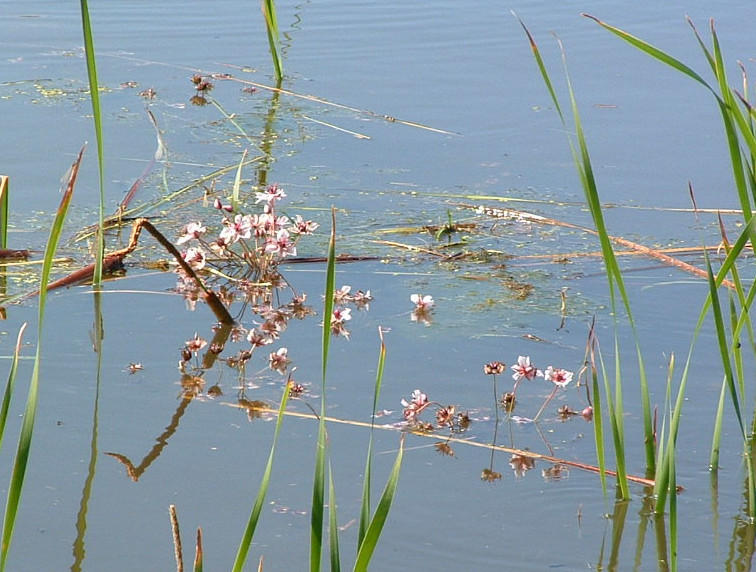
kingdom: Plantae
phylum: Tracheophyta
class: Liliopsida
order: Alismatales
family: Butomaceae
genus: Butomus
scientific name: Butomus umbellatus
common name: Flowering-rush
